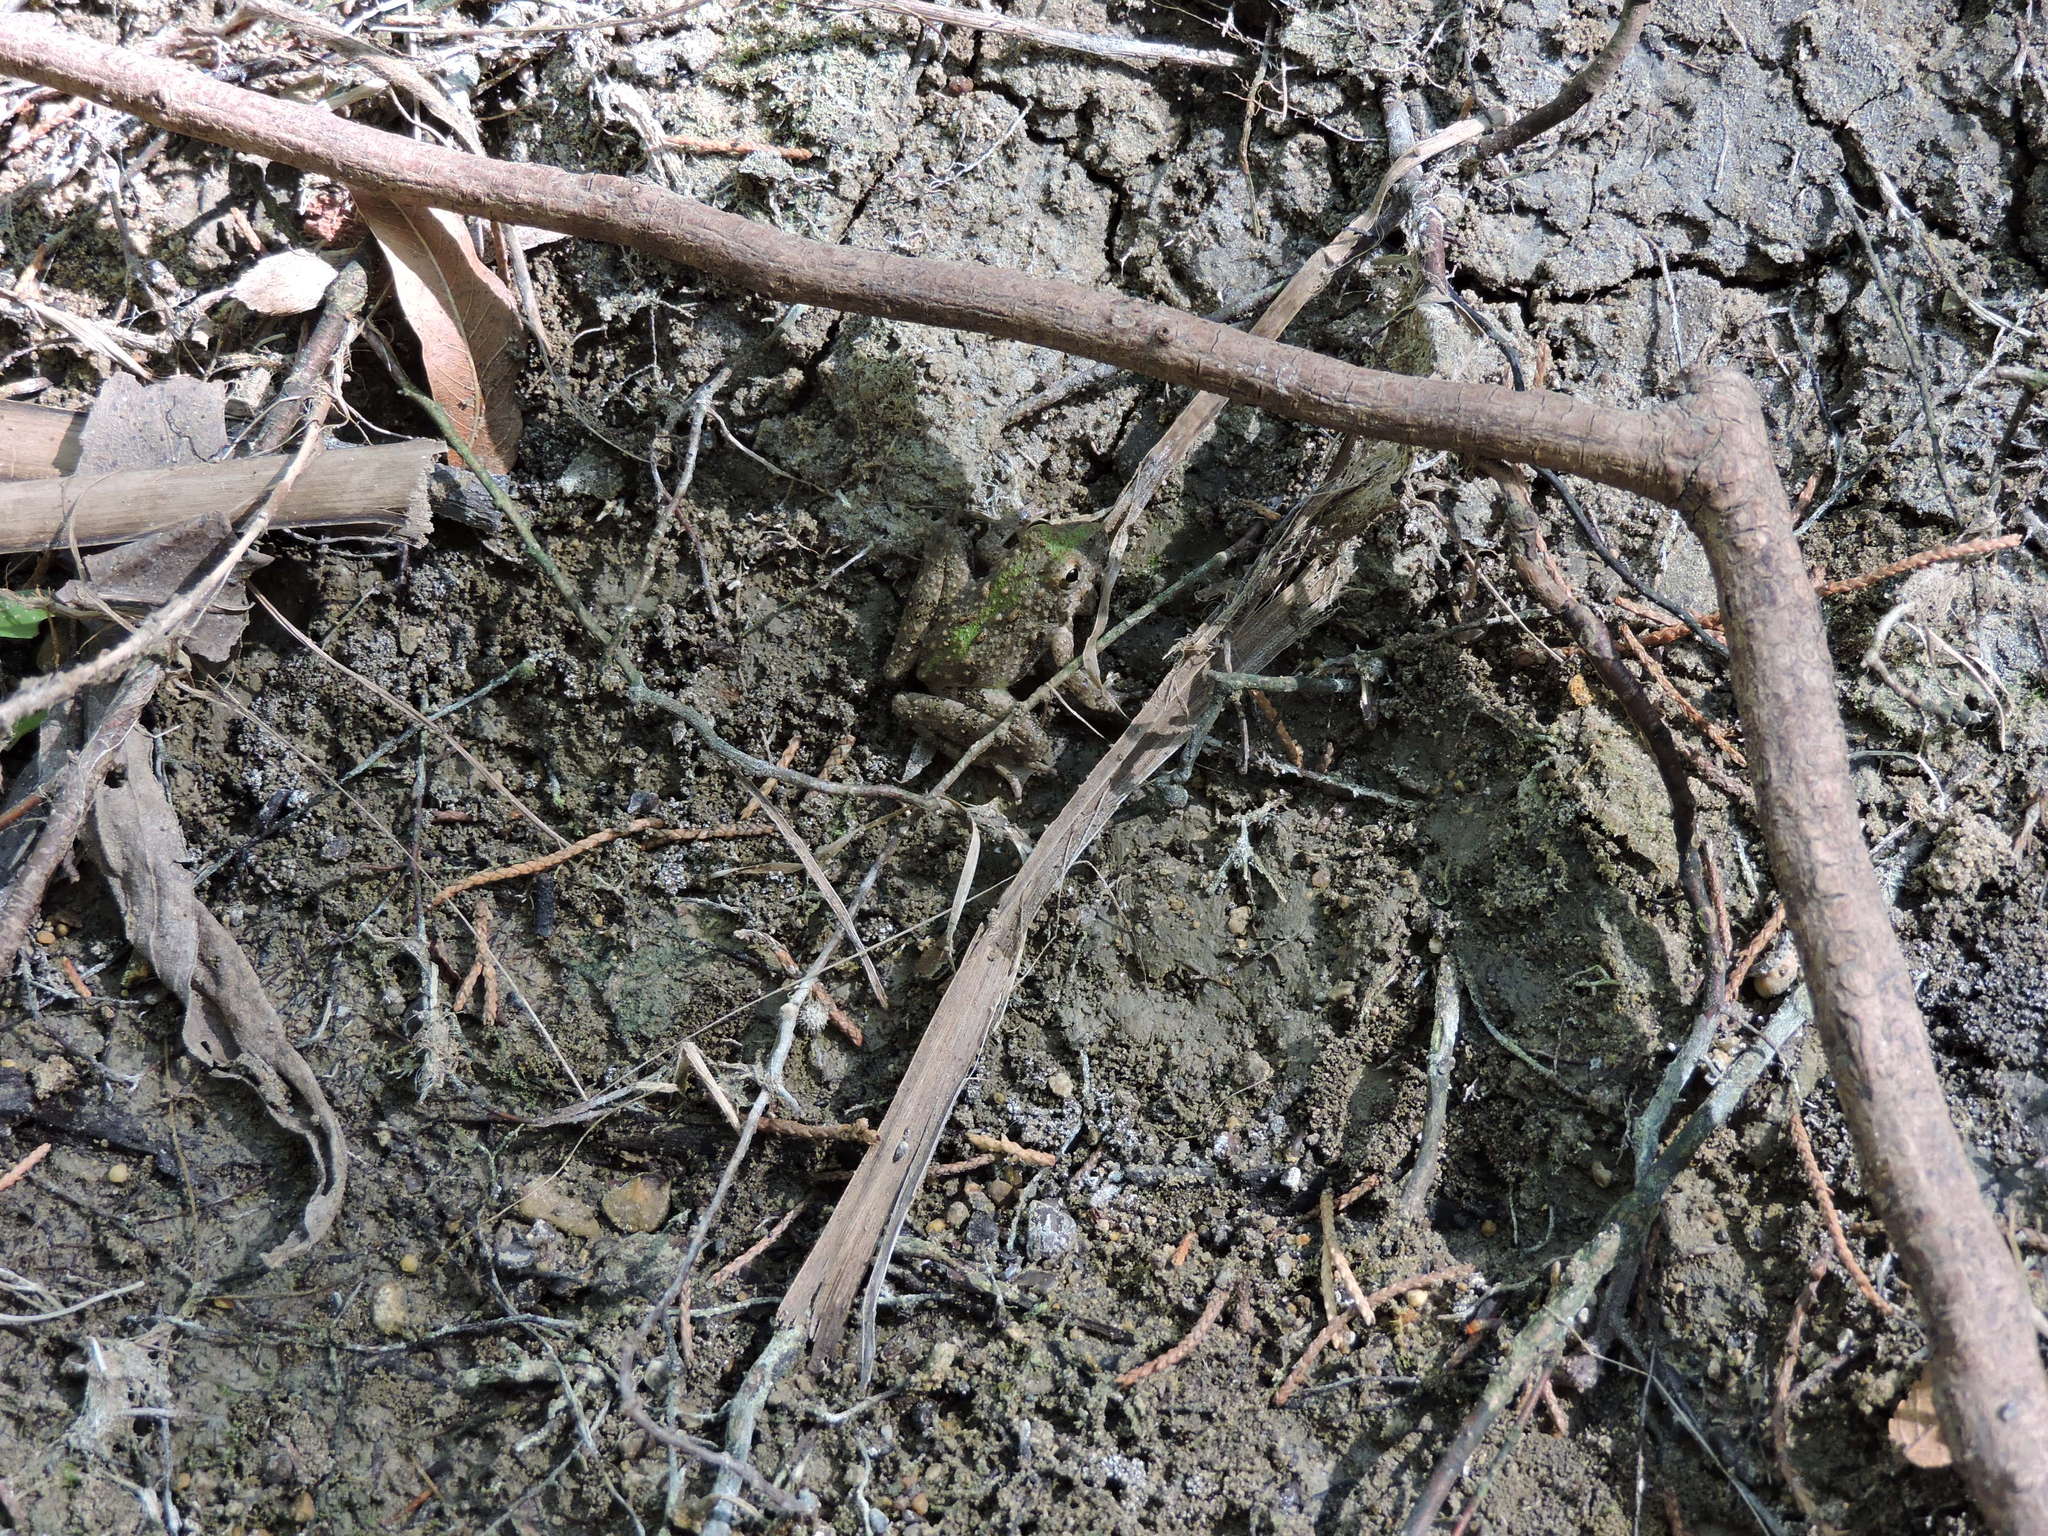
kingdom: Animalia
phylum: Chordata
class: Amphibia
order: Anura
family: Hylidae
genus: Acris
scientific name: Acris blanchardi
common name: Blanchard's cricket frog
